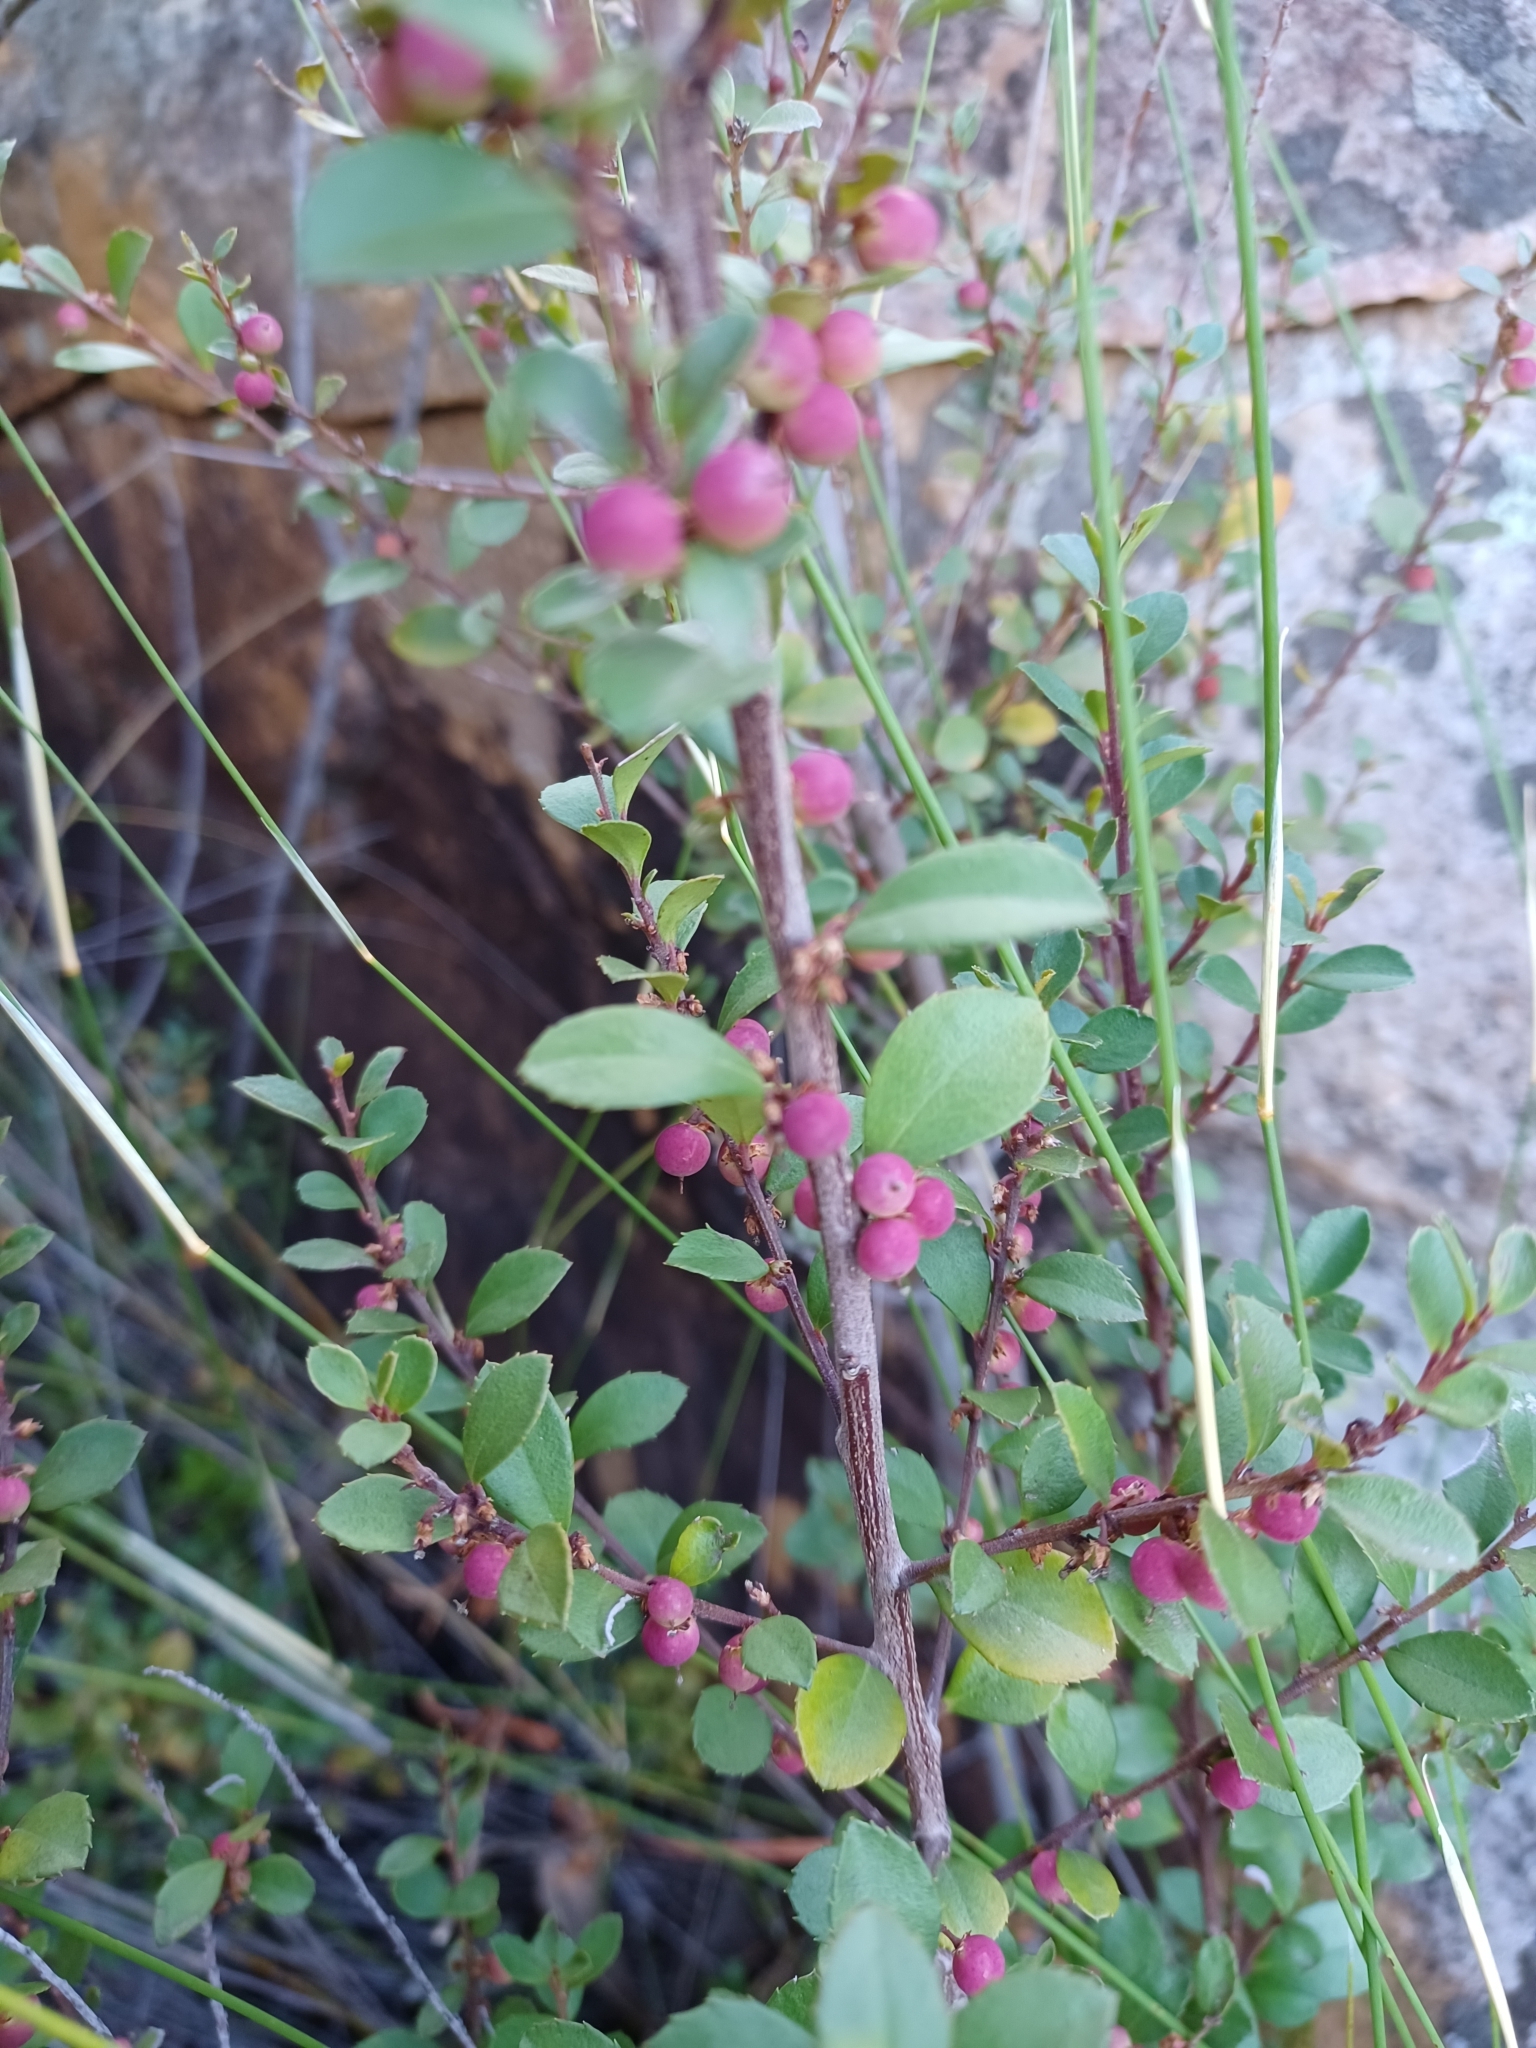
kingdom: Plantae
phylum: Tracheophyta
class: Magnoliopsida
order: Ericales
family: Primulaceae
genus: Myrsine
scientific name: Myrsine africana
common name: African-boxwood
